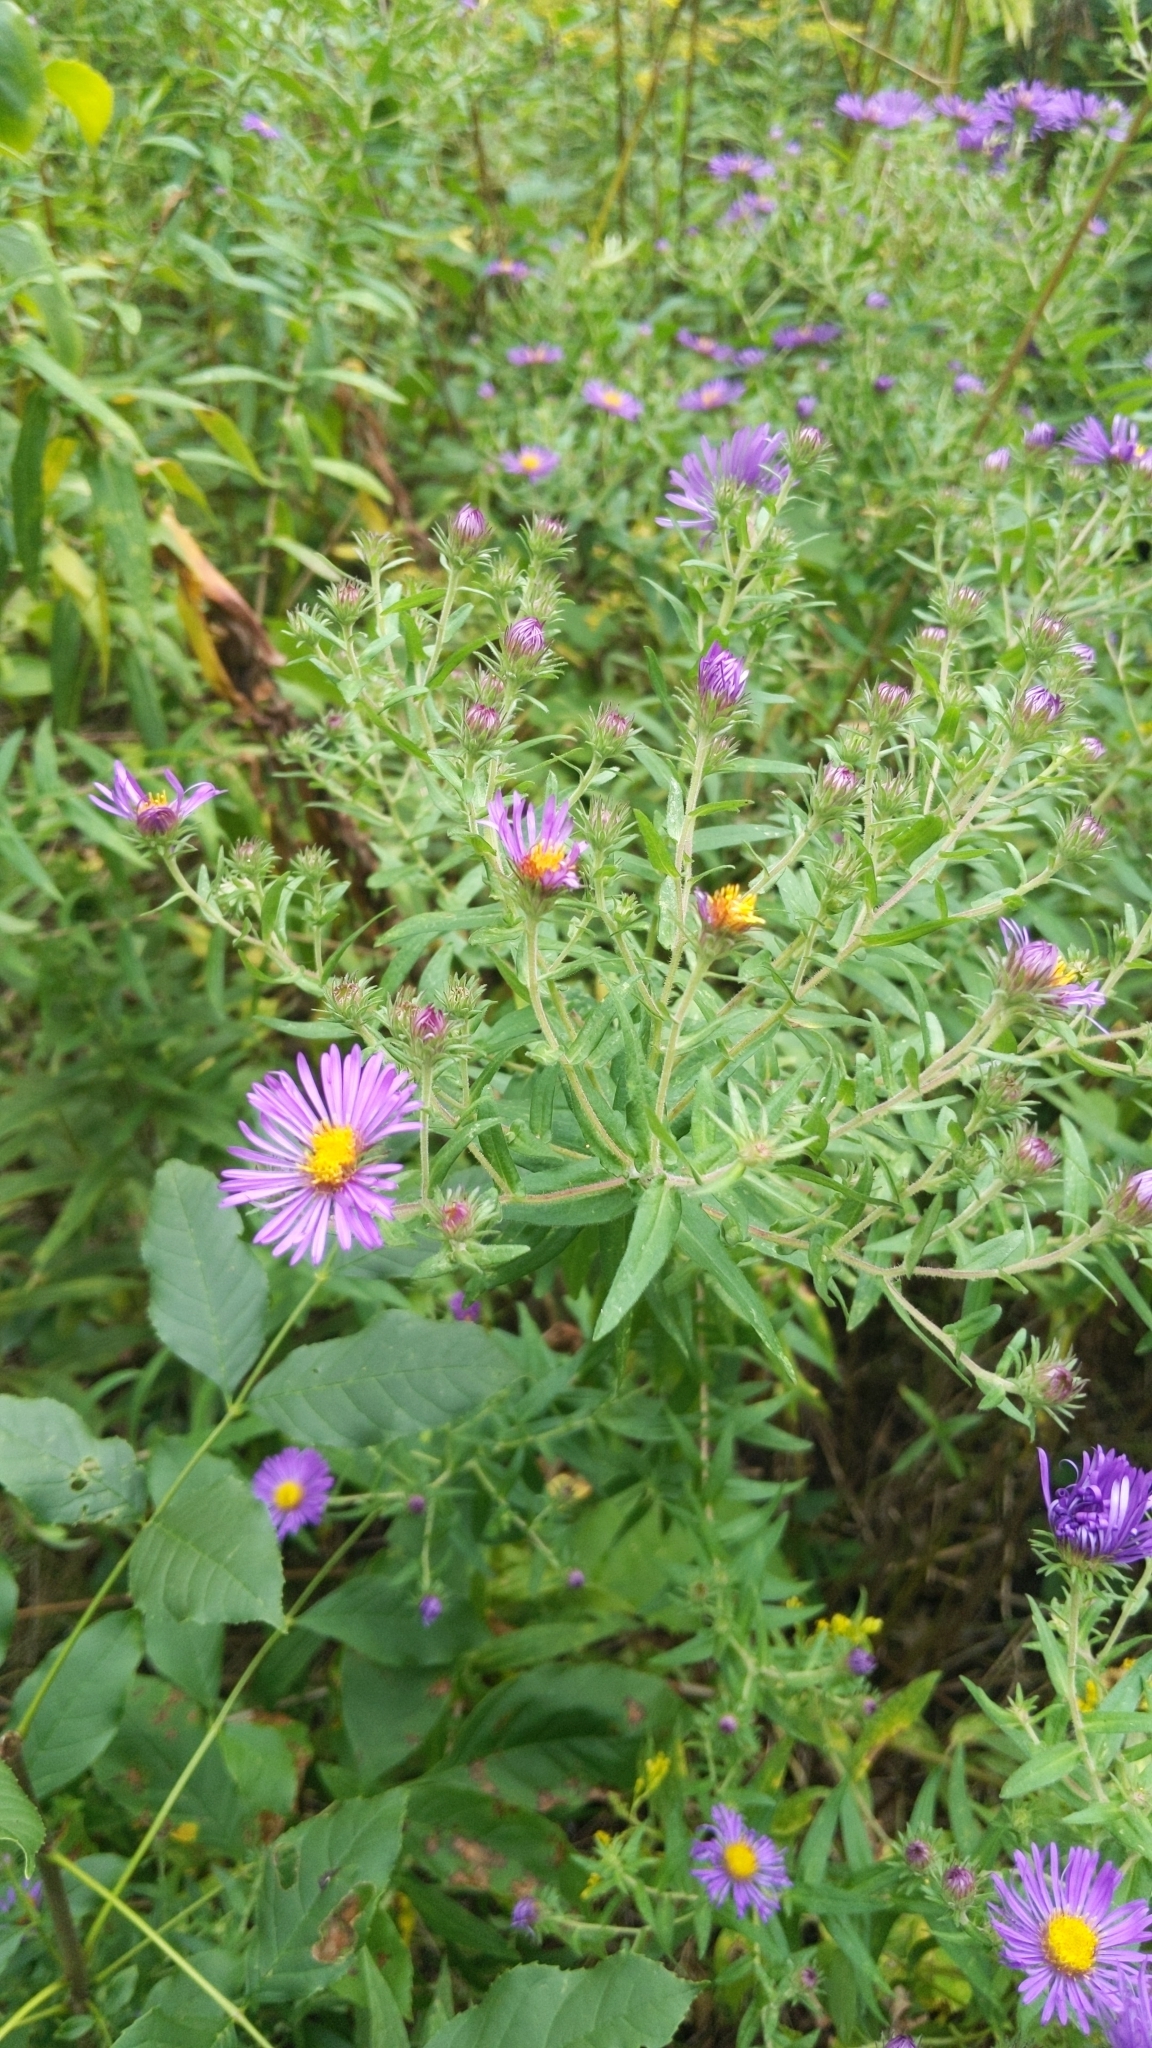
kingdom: Plantae
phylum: Tracheophyta
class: Magnoliopsida
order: Asterales
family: Asteraceae
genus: Symphyotrichum
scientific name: Symphyotrichum novae-angliae
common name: Michaelmas daisy
